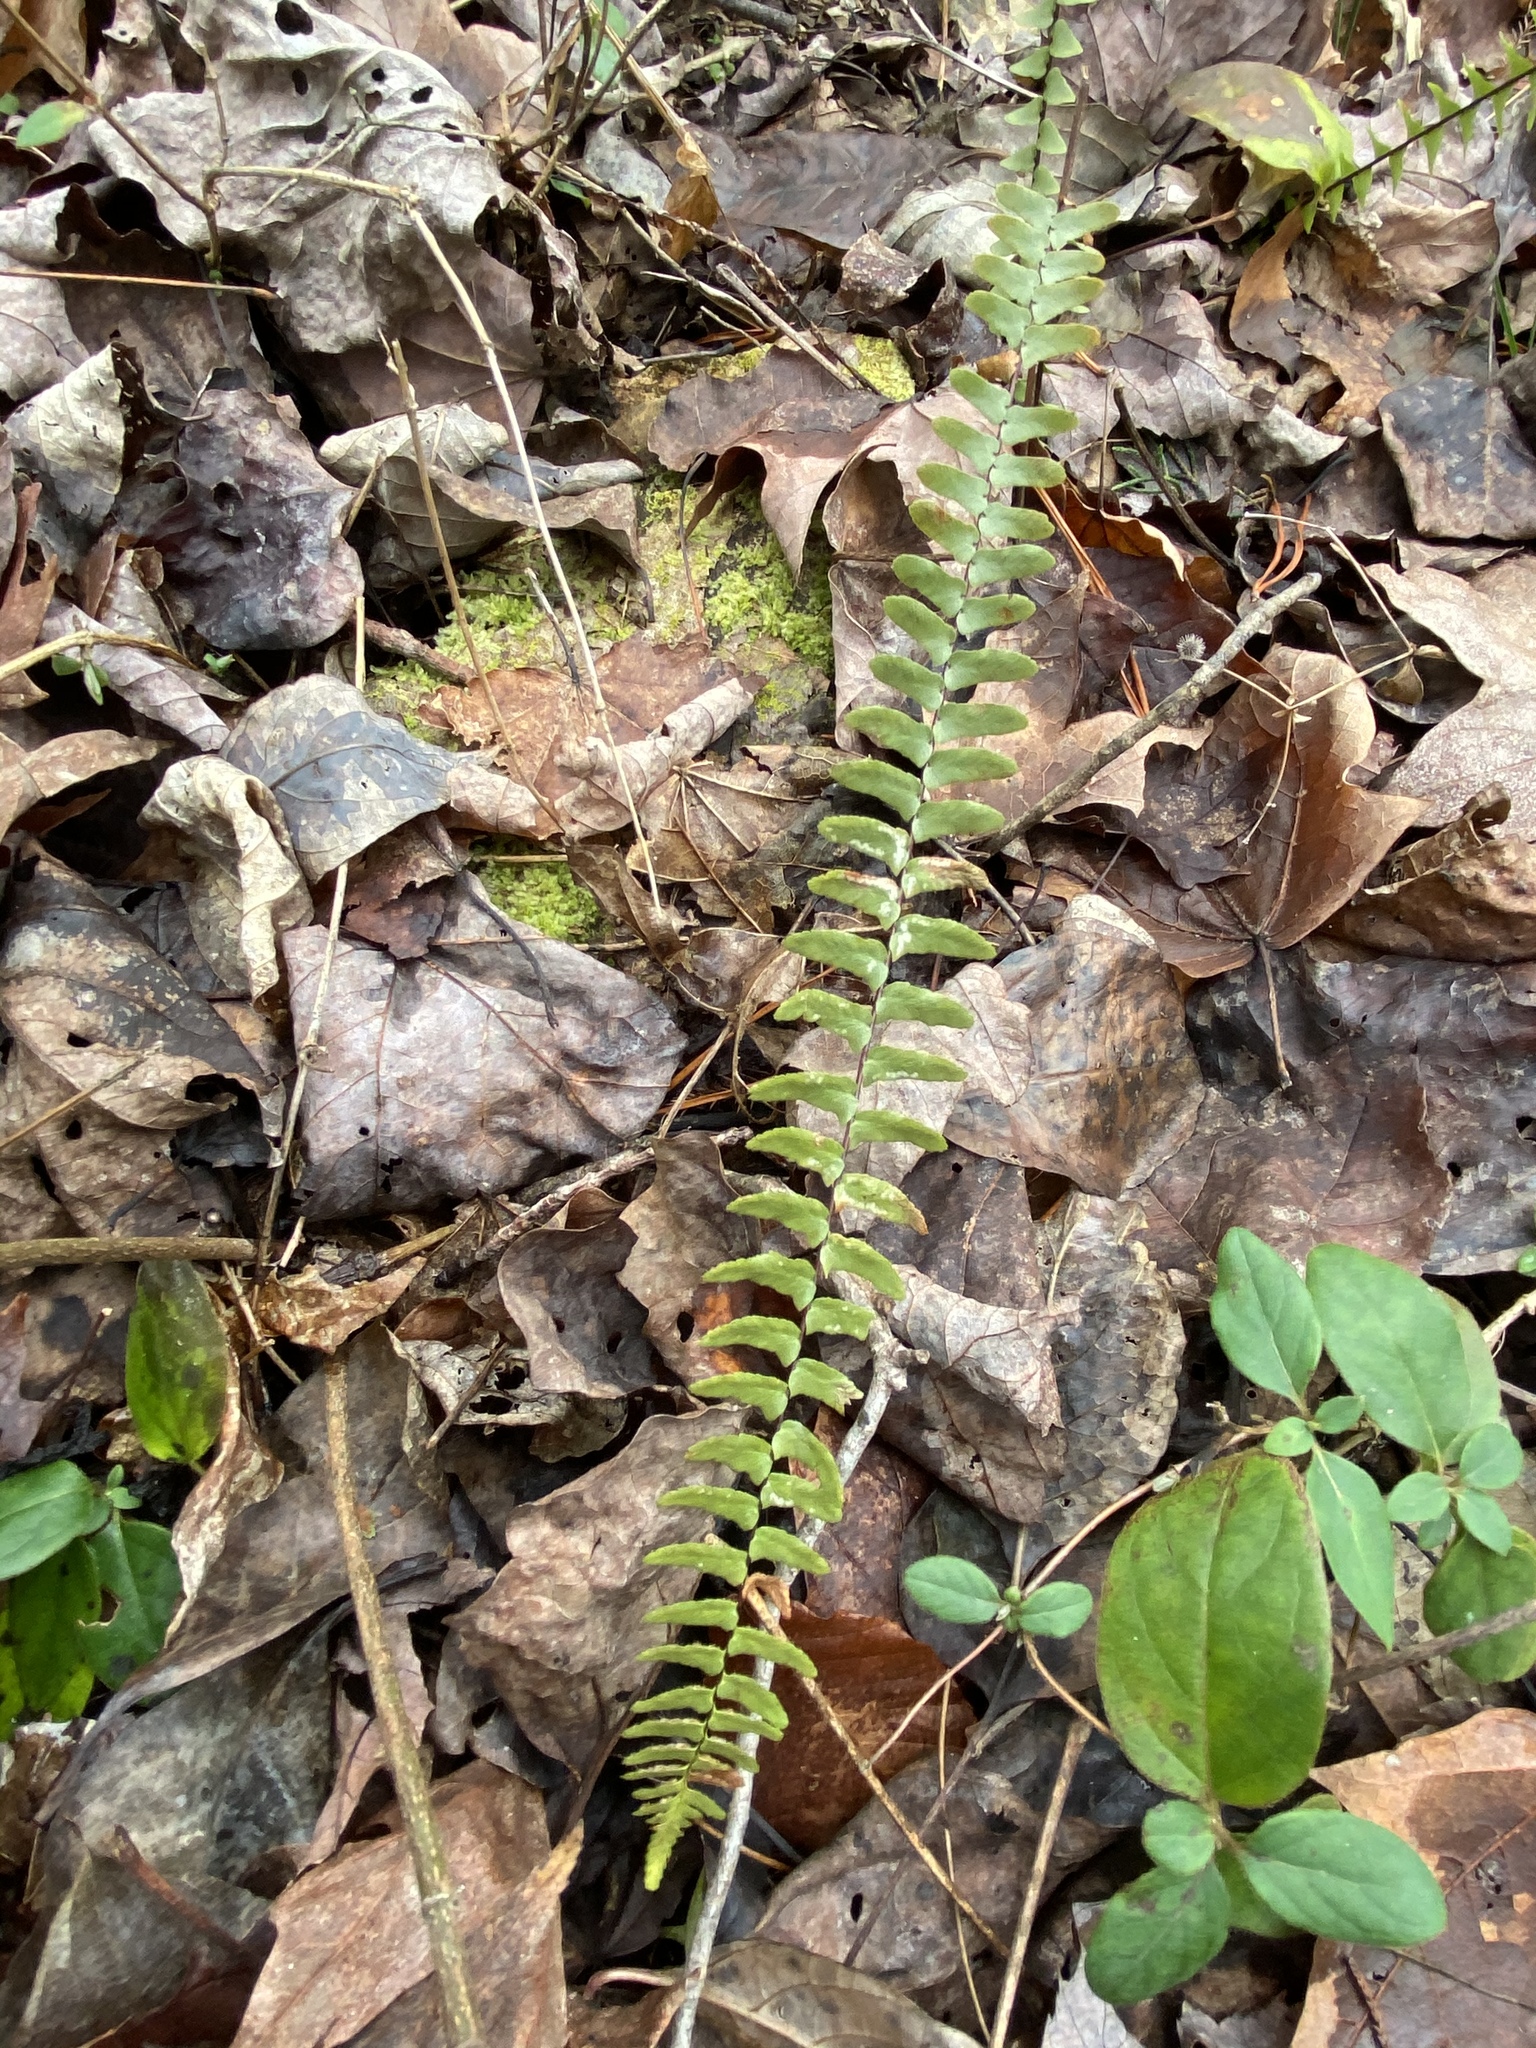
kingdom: Plantae
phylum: Tracheophyta
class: Polypodiopsida
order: Polypodiales
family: Aspleniaceae
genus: Asplenium
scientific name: Asplenium platyneuron
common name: Ebony spleenwort
